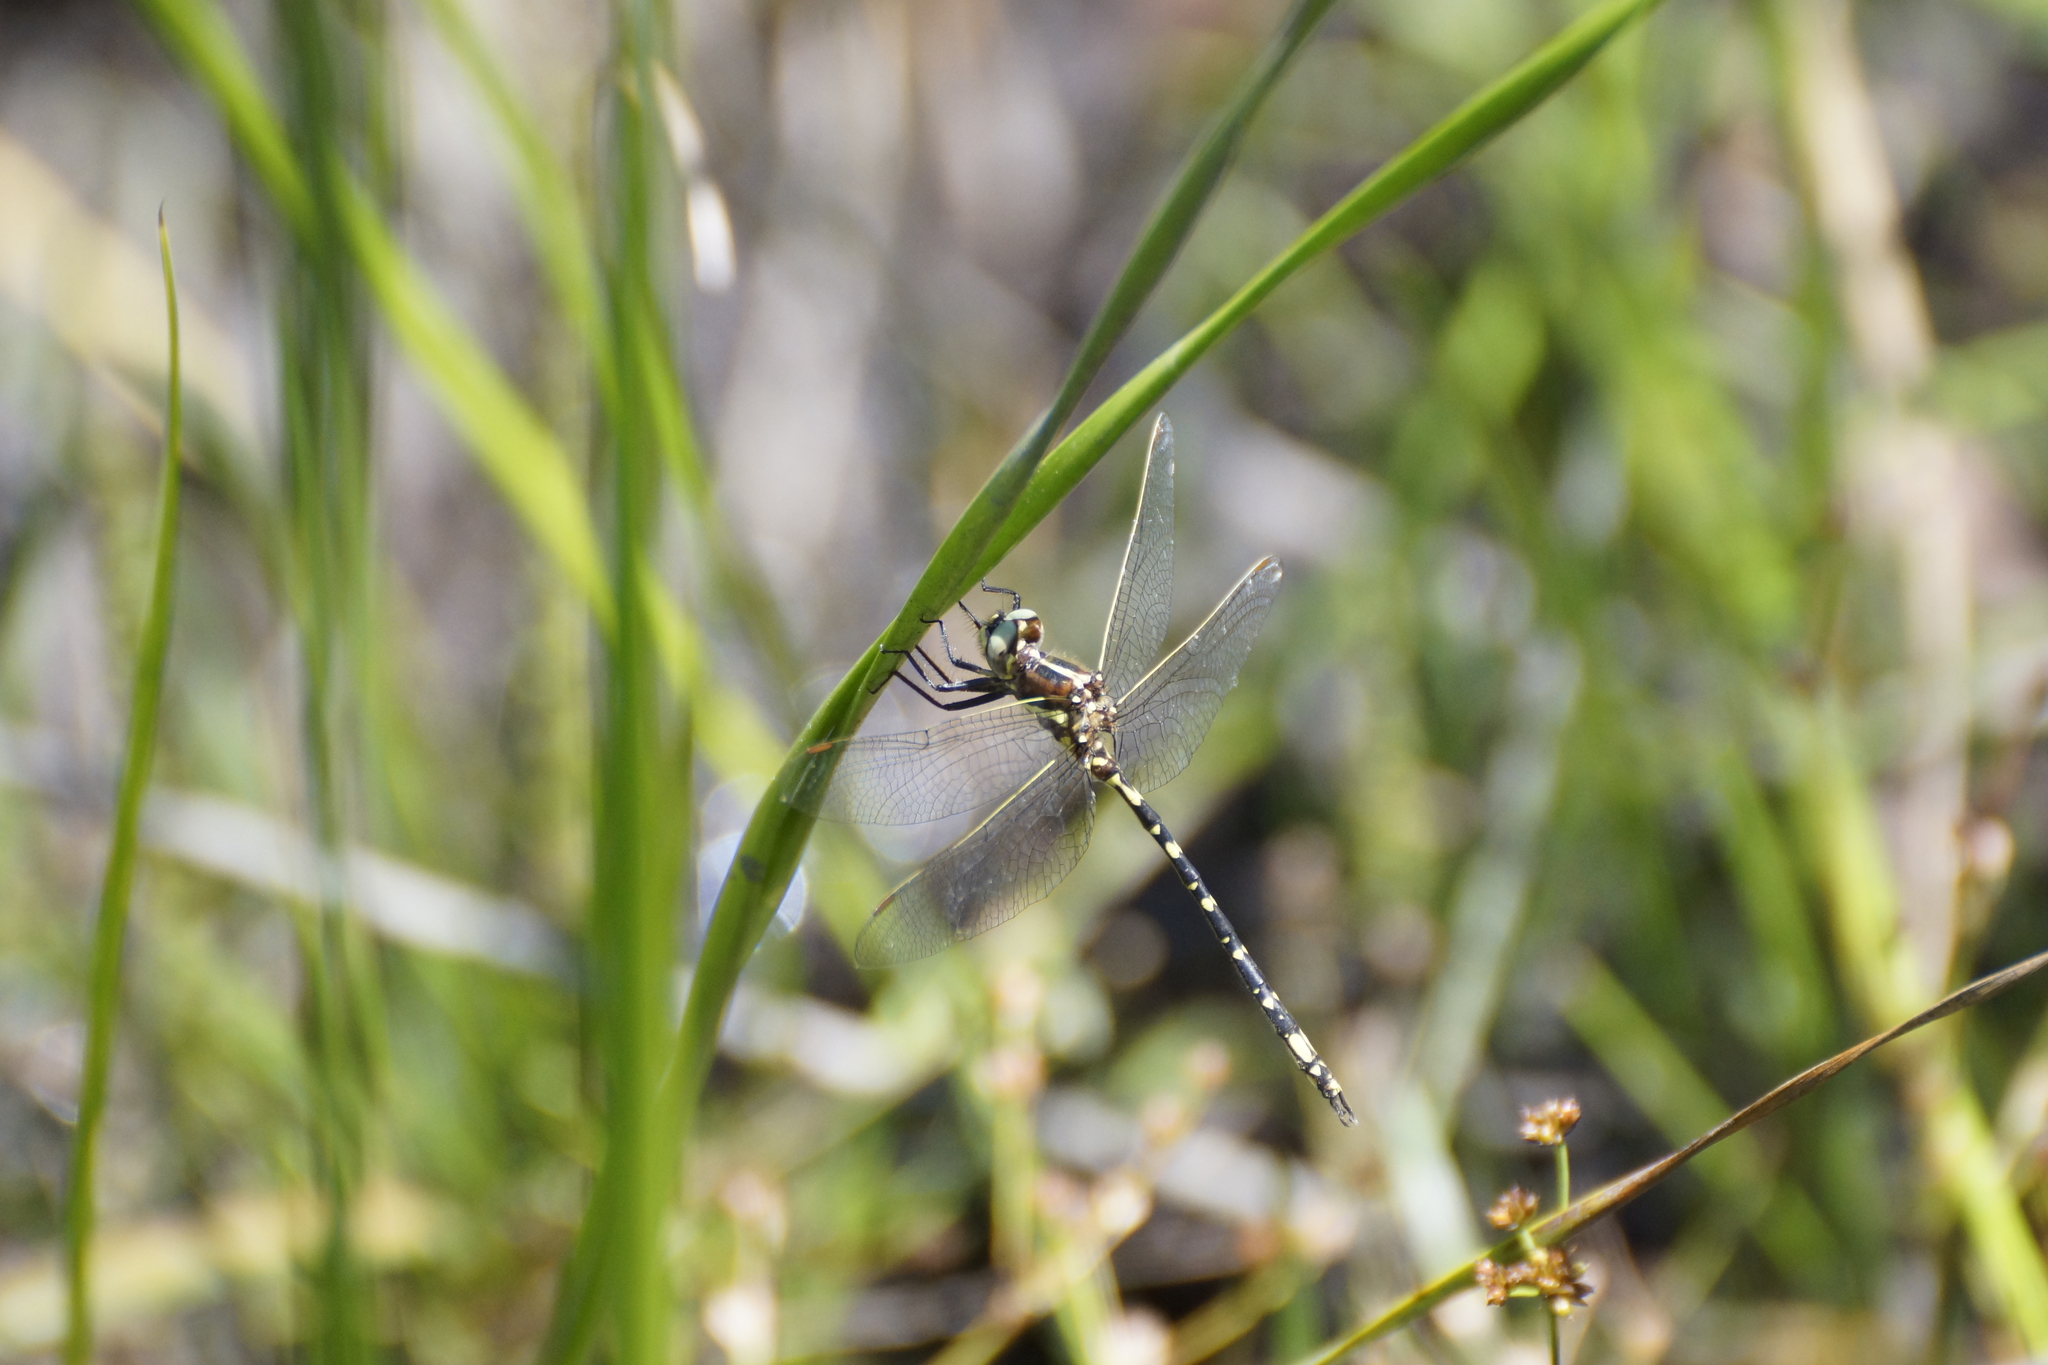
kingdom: Animalia
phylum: Arthropoda
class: Insecta
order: Odonata
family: Synthemistidae
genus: Synthemis
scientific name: Synthemis eustalacta
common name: Swamp tigertail
